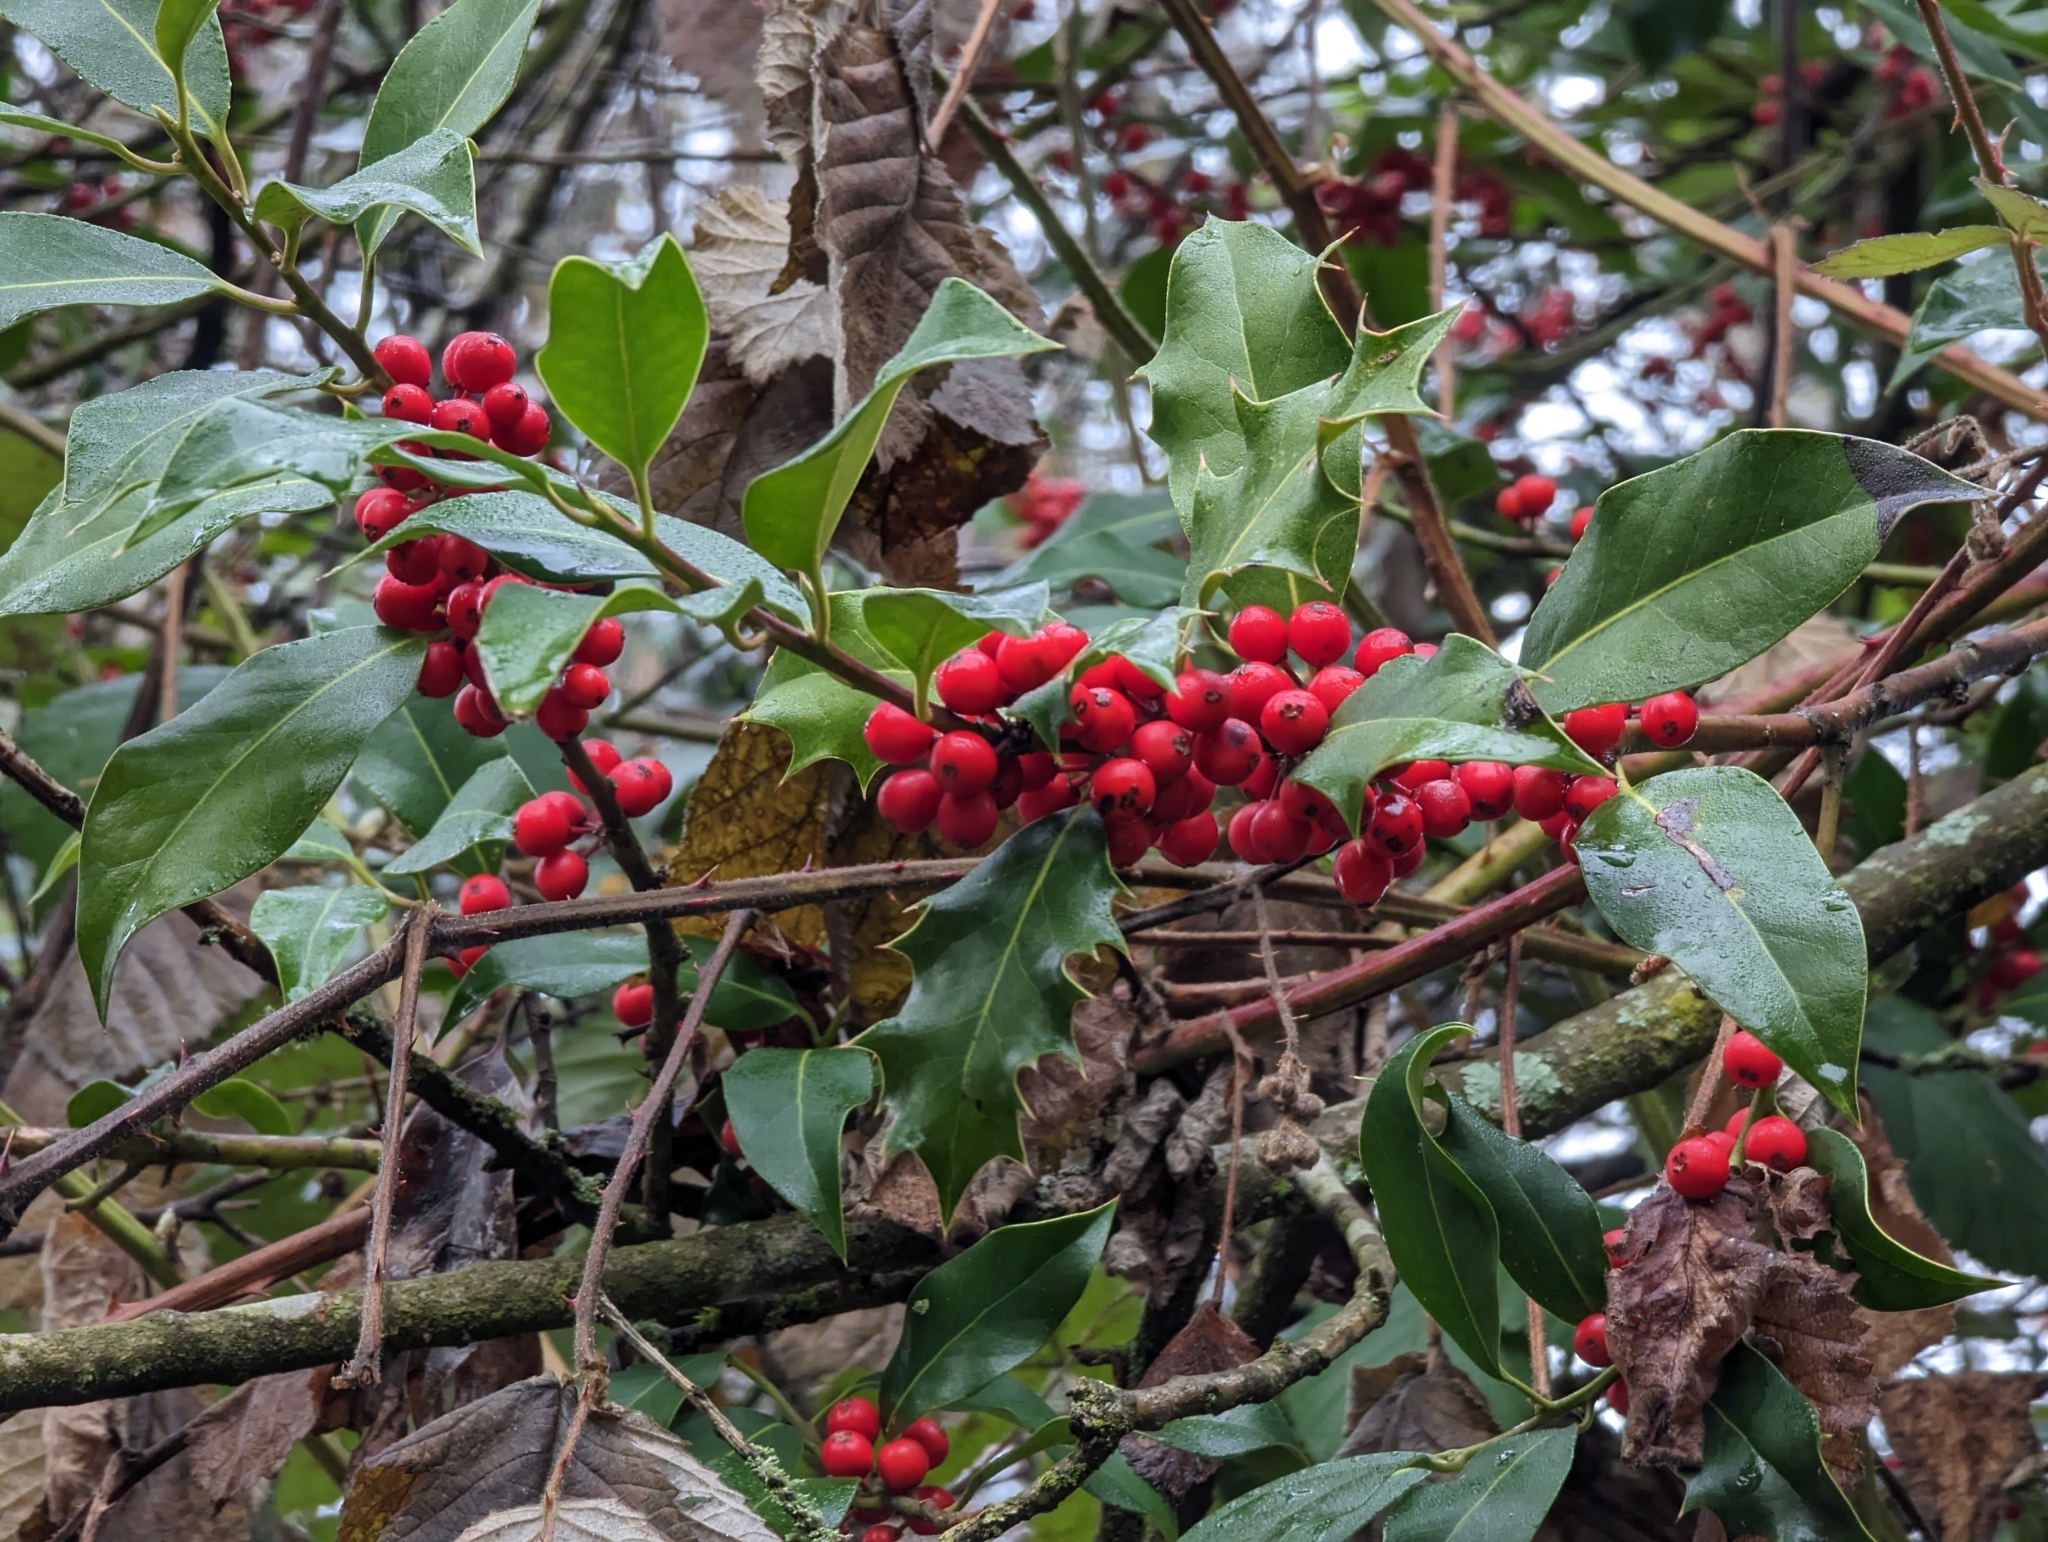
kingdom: Plantae
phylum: Tracheophyta
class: Magnoliopsida
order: Aquifoliales
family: Aquifoliaceae
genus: Ilex
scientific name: Ilex aquifolium
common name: English holly
